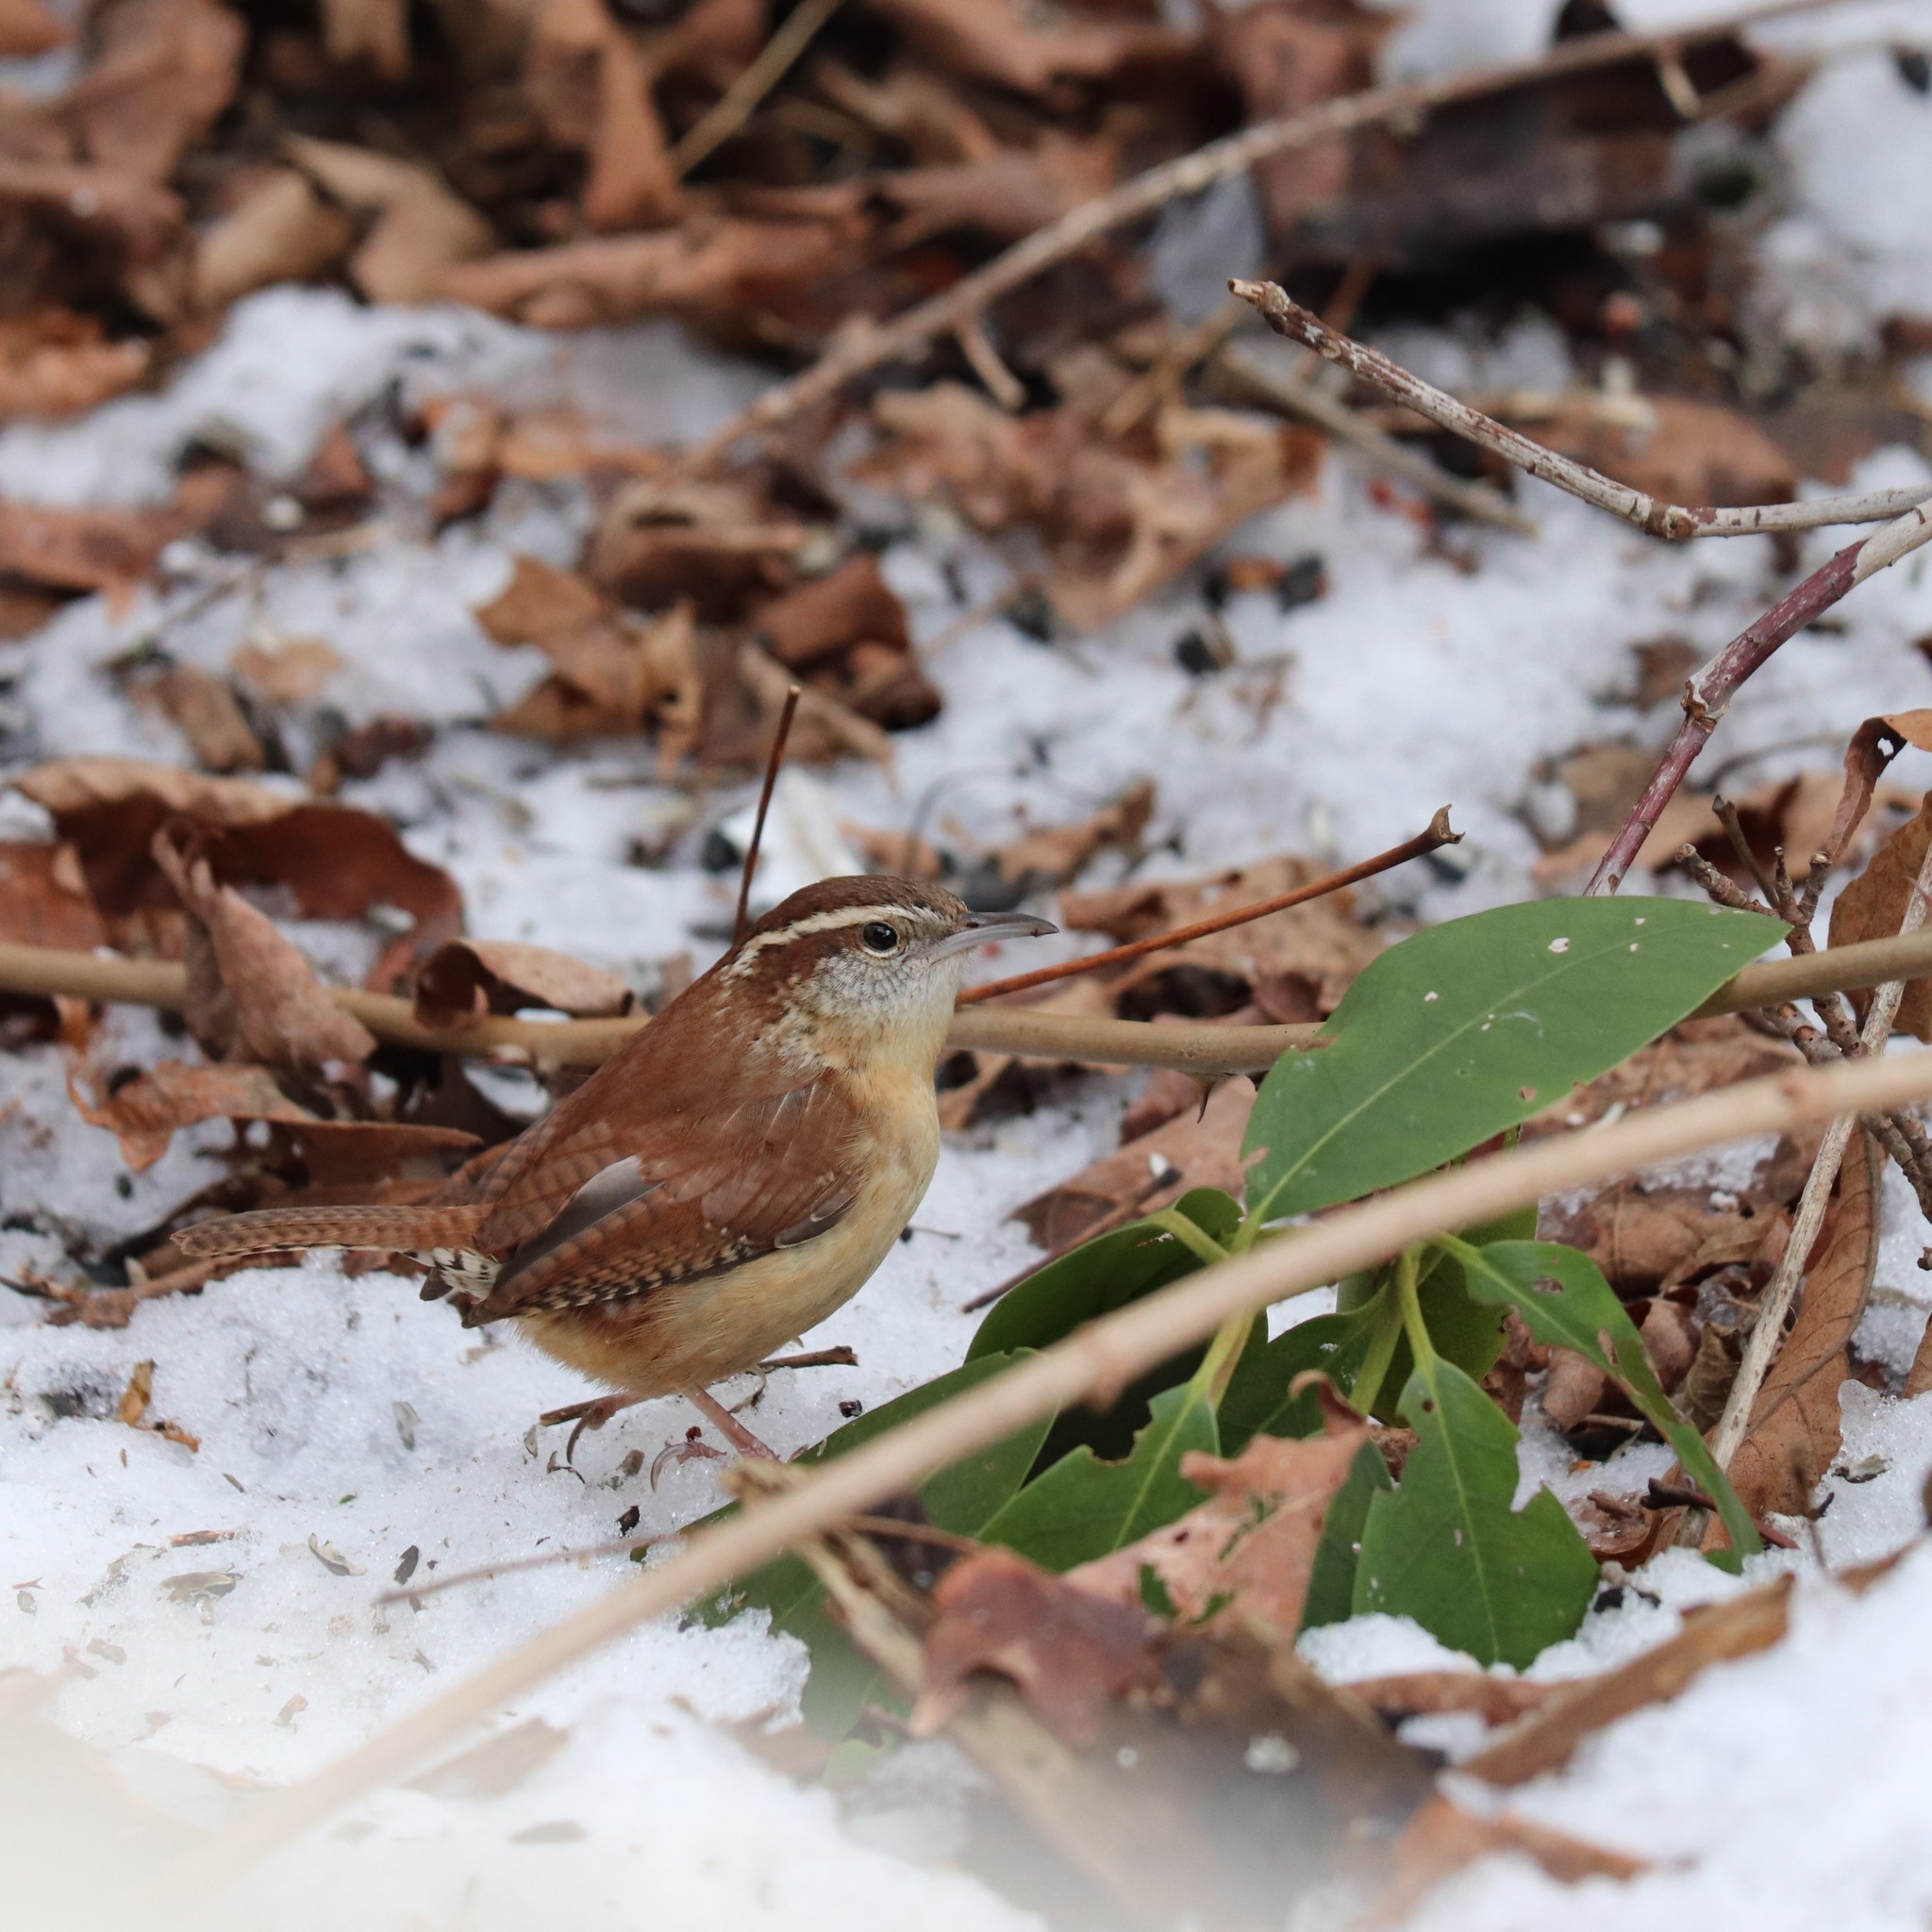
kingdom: Animalia
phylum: Chordata
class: Aves
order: Passeriformes
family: Troglodytidae
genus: Thryothorus
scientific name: Thryothorus ludovicianus
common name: Carolina wren
